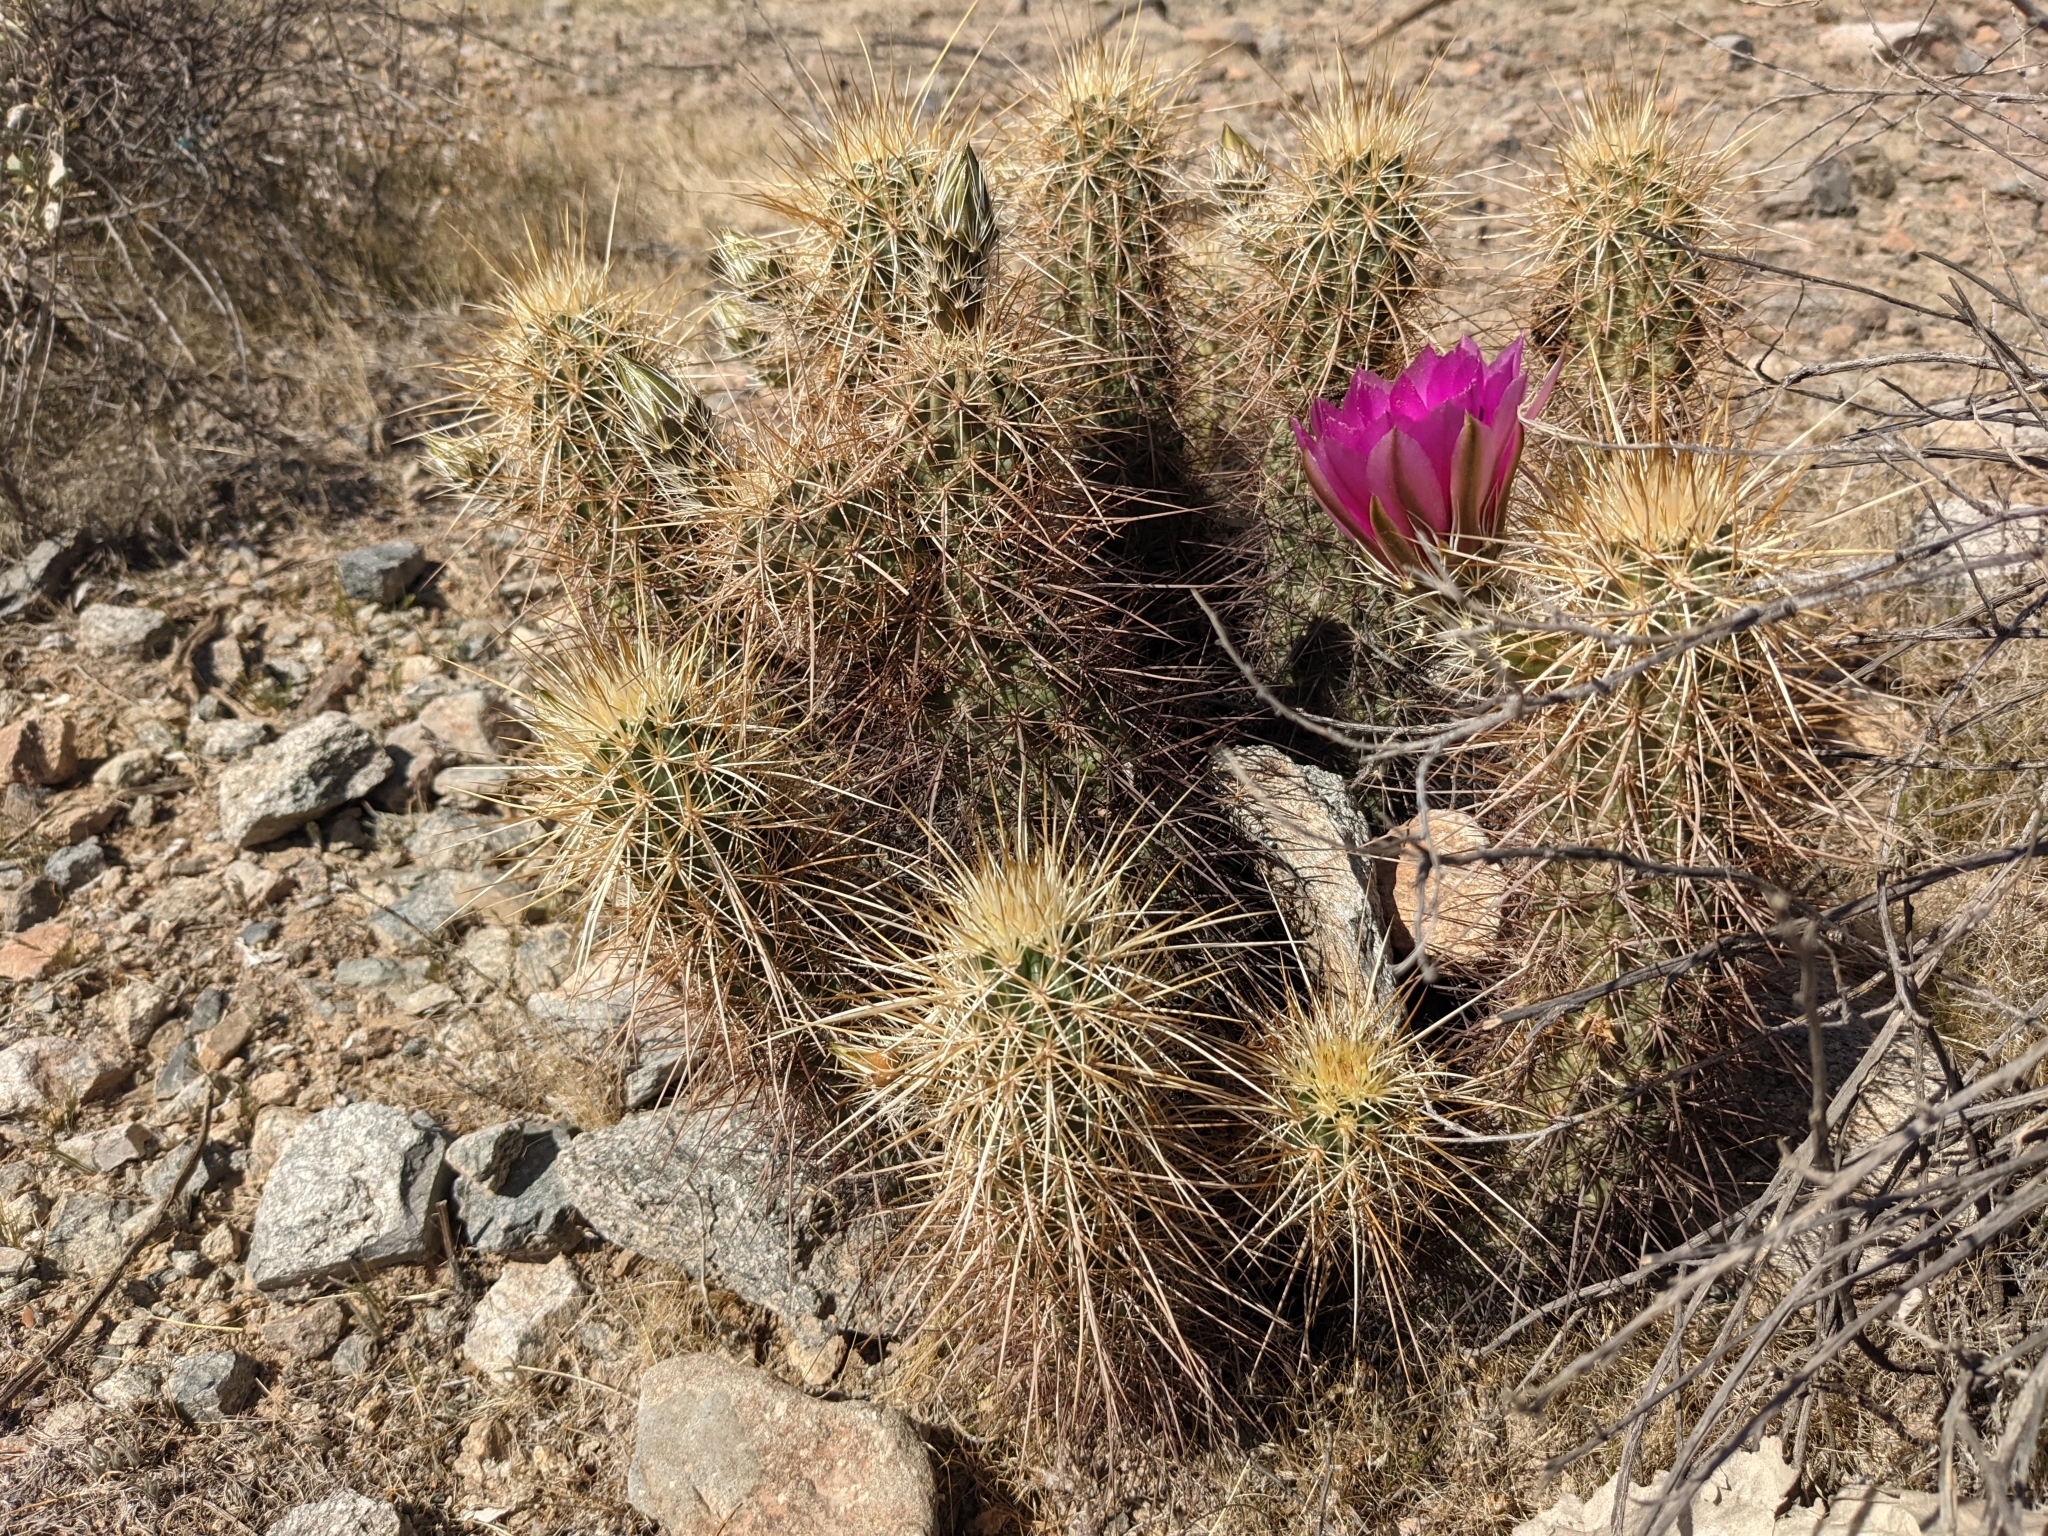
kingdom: Plantae
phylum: Tracheophyta
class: Magnoliopsida
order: Caryophyllales
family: Cactaceae
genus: Echinocereus
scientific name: Echinocereus engelmannii
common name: Engelmann's hedgehog cactus
